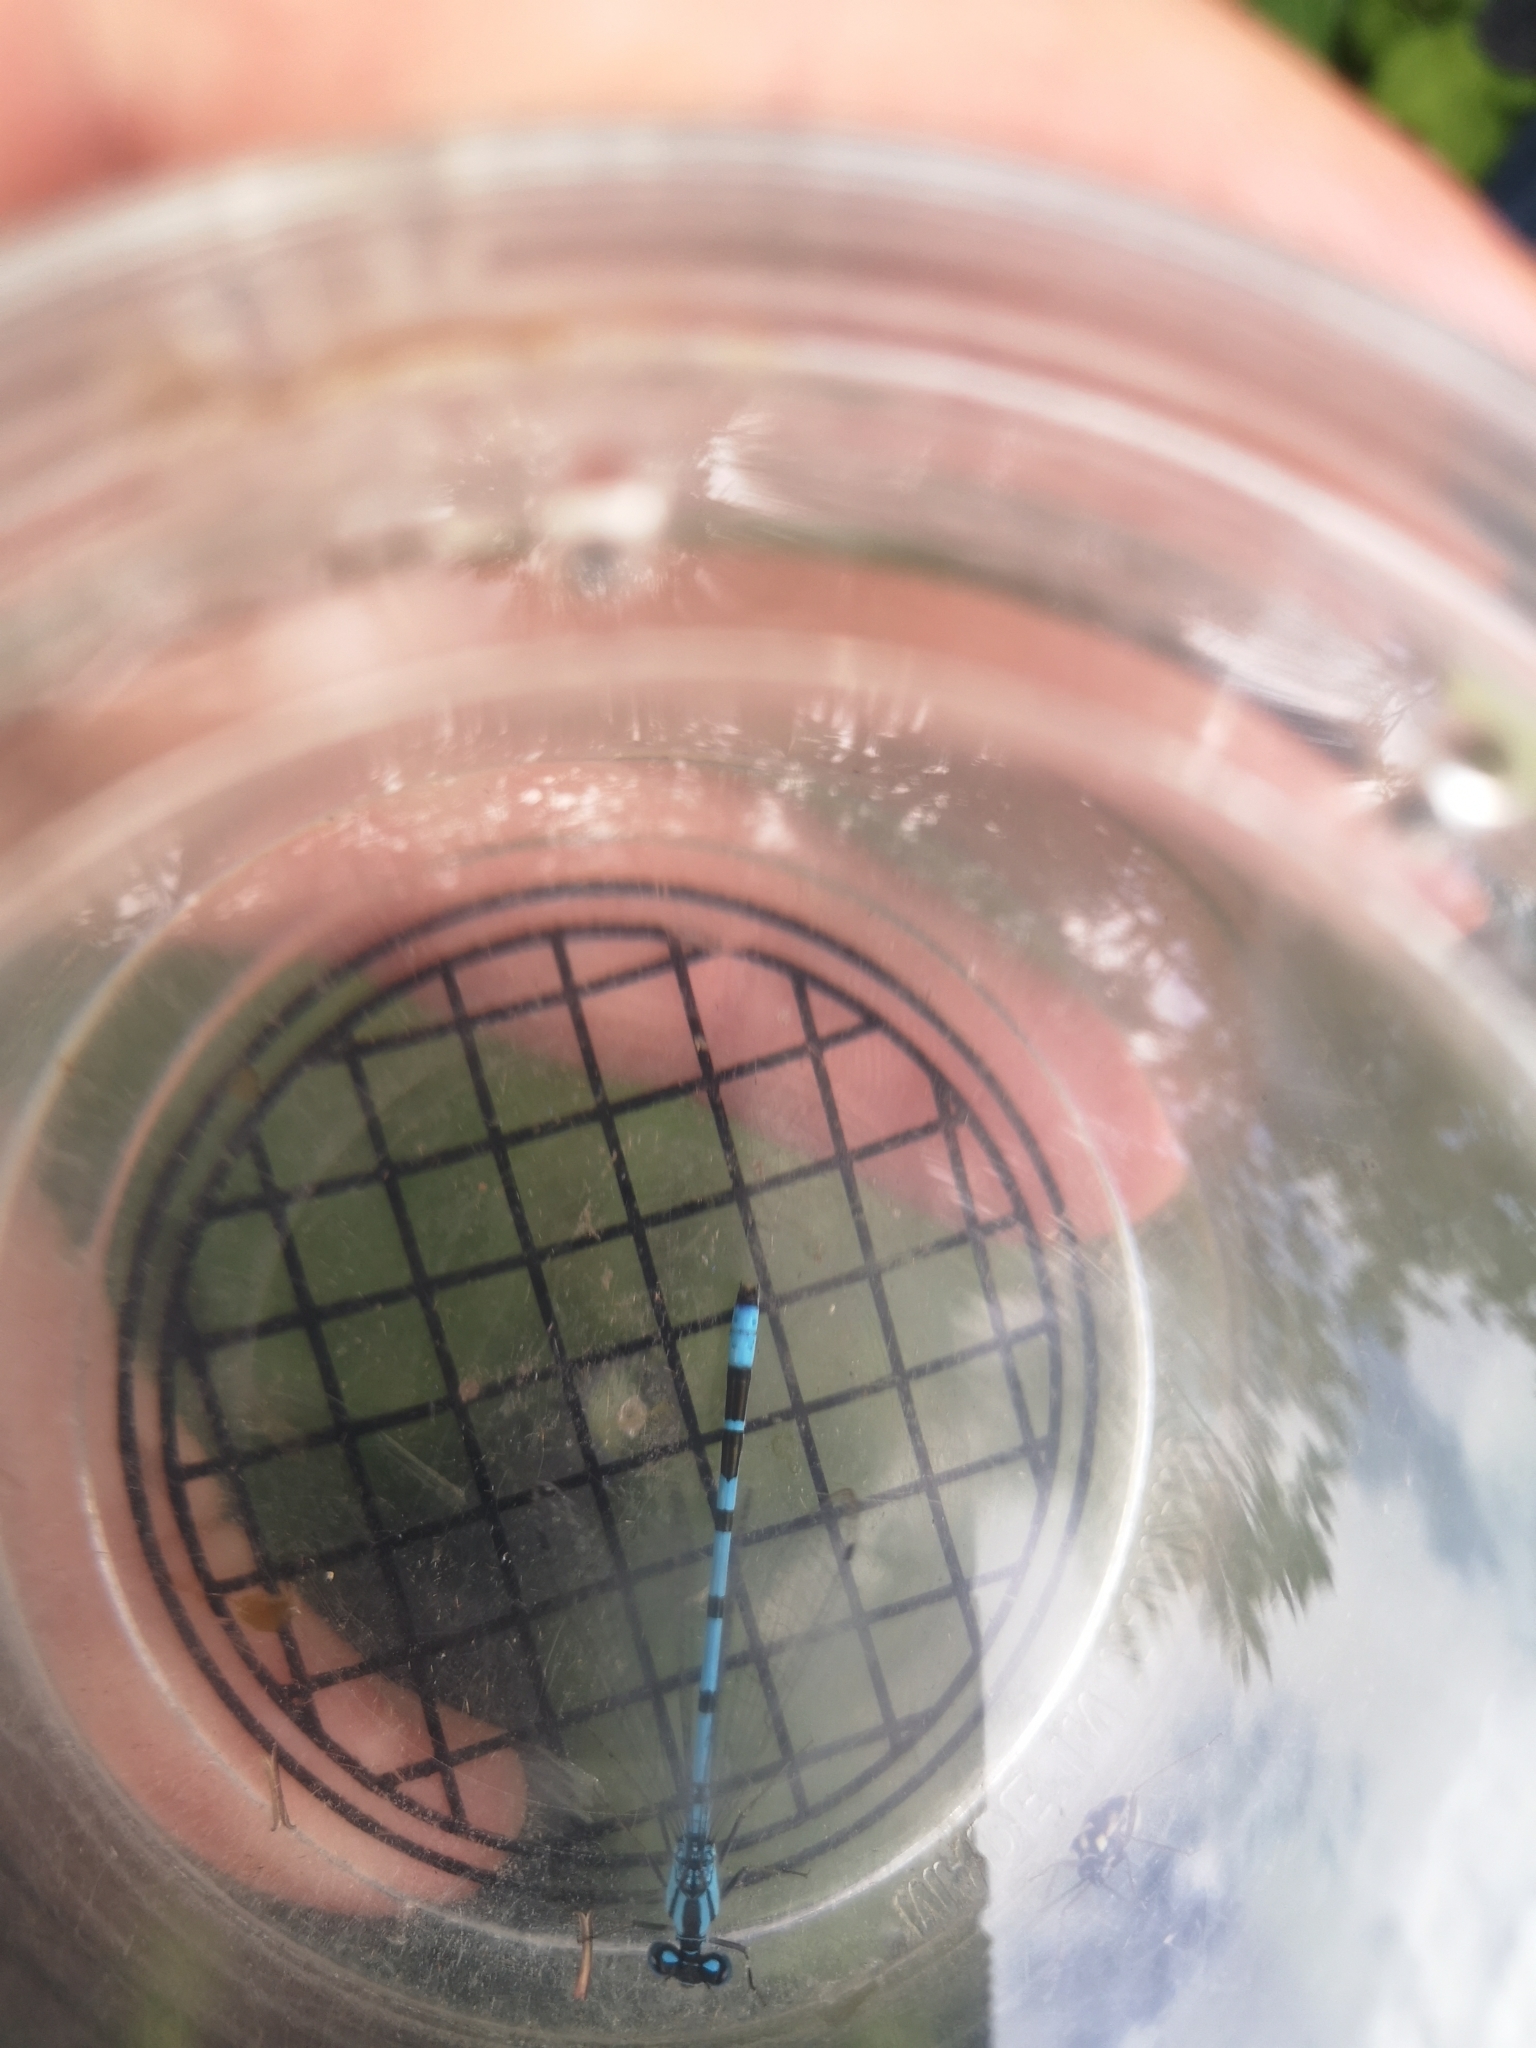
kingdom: Animalia
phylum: Arthropoda
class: Insecta
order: Odonata
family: Coenagrionidae
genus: Enallagma
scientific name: Enallagma cyathigerum
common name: Common blue damselfly
